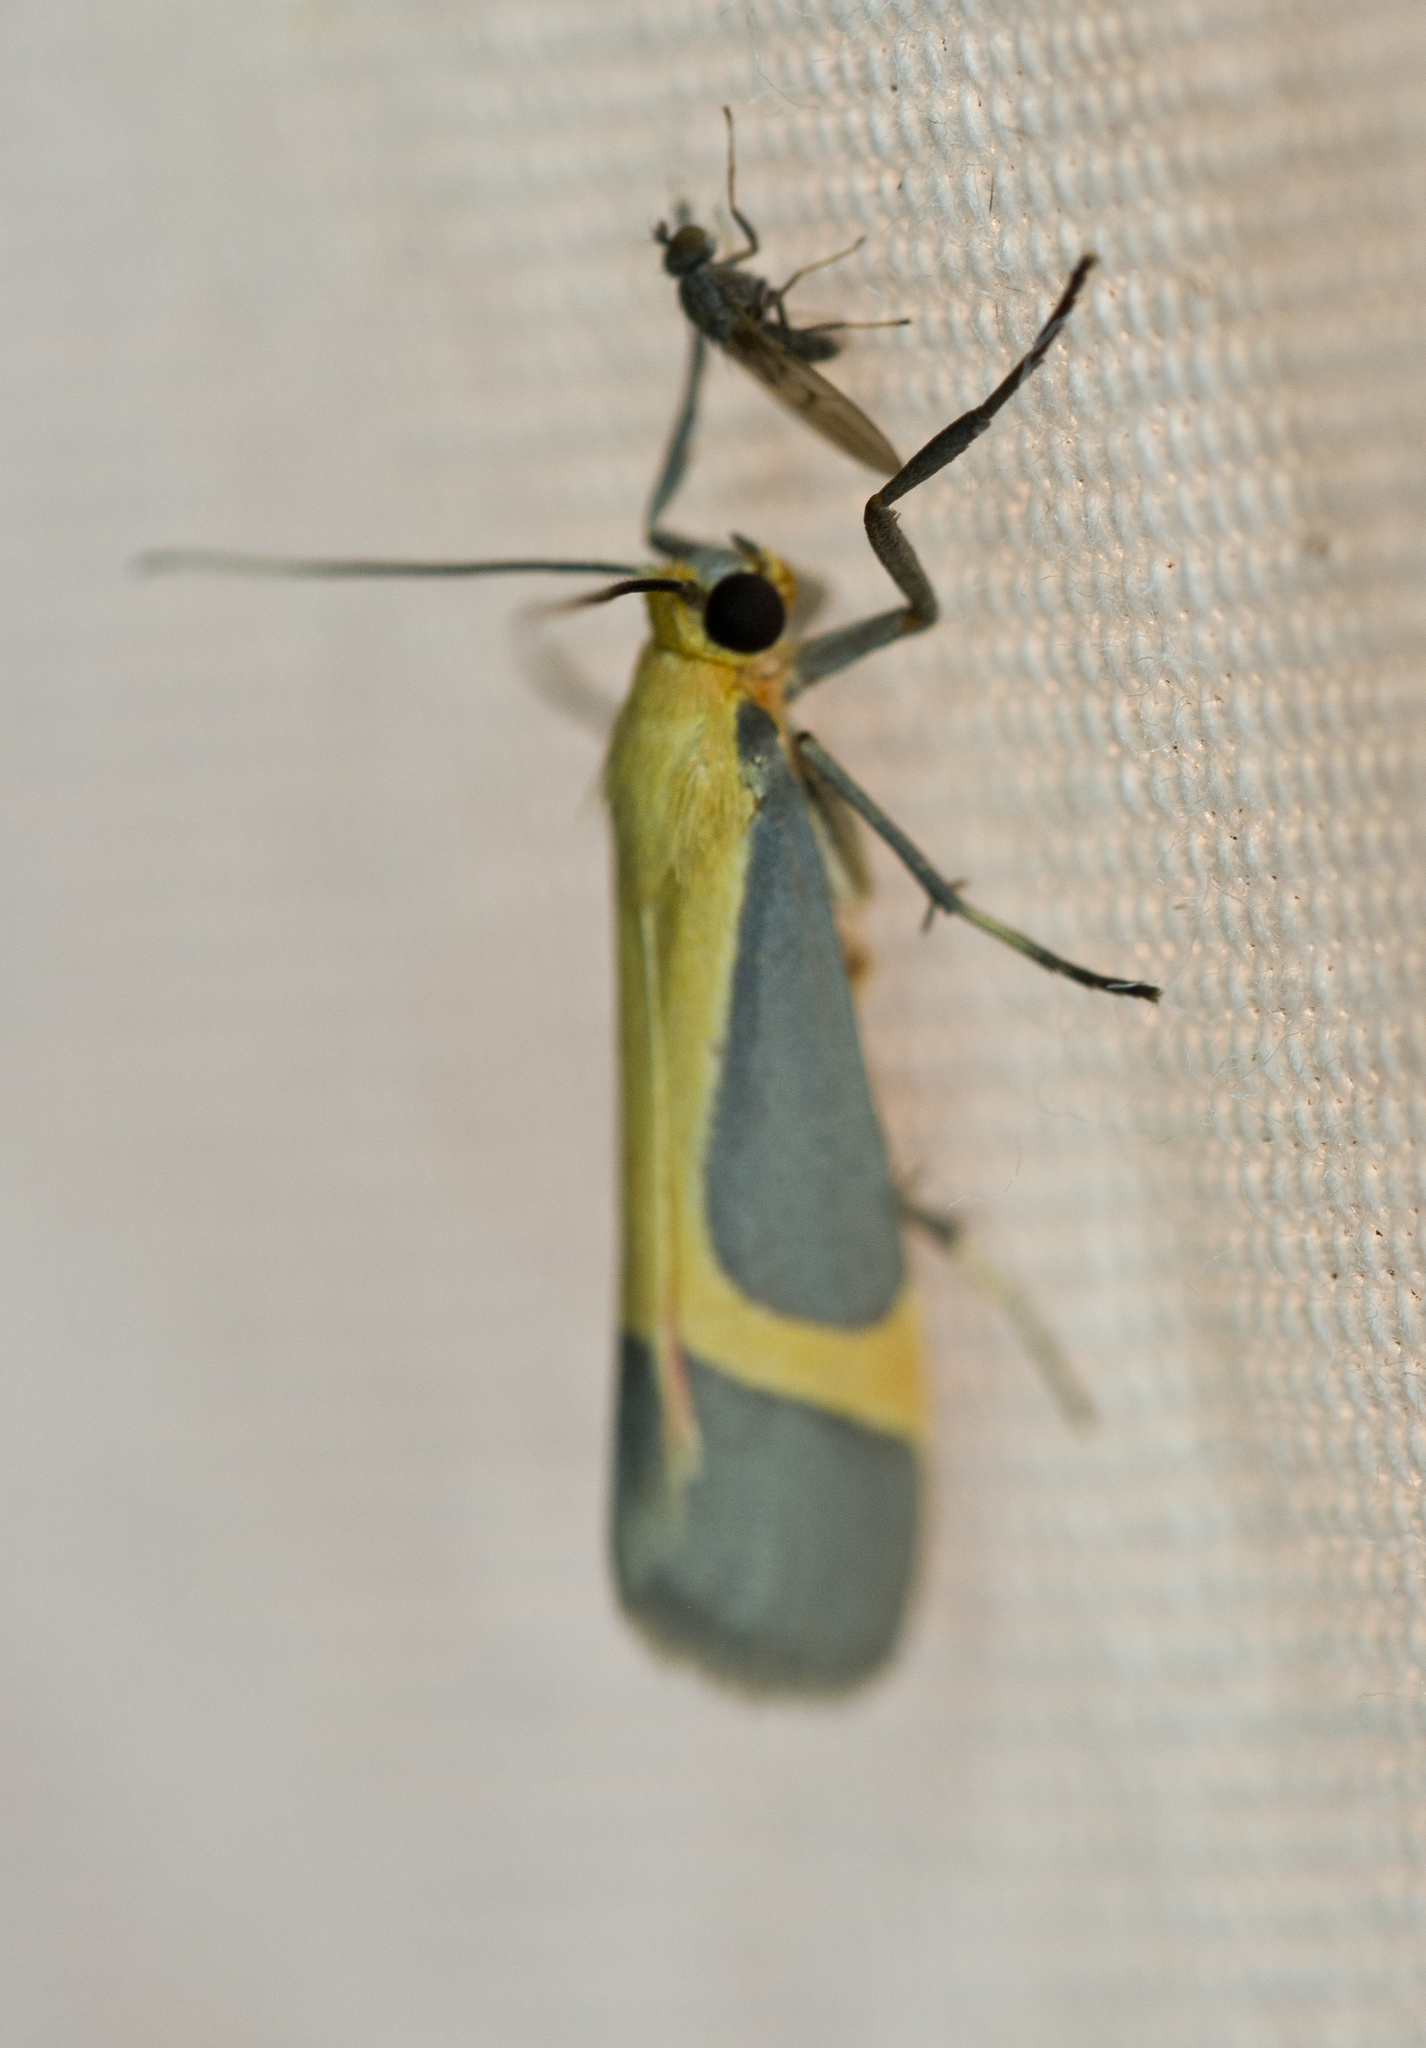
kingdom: Animalia
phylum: Arthropoda
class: Insecta
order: Lepidoptera
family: Erebidae
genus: Cisthene
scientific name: Cisthene angelus
